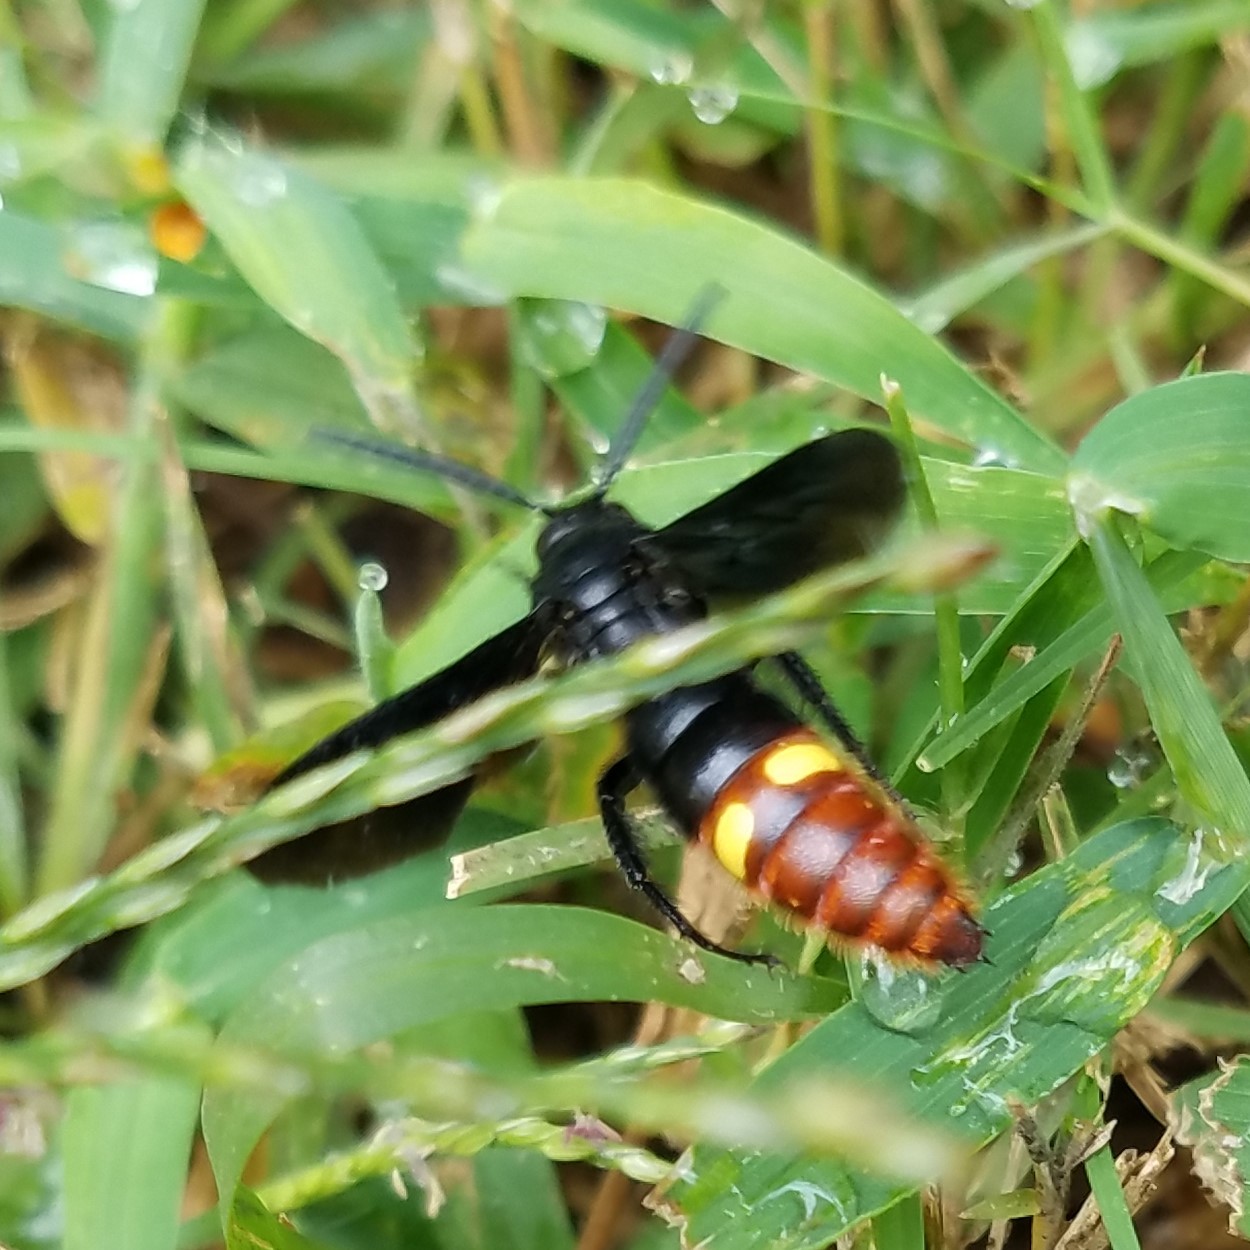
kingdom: Animalia
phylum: Arthropoda
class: Insecta
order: Hymenoptera
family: Scoliidae
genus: Scolia
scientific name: Scolia dubia
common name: Blue-winged scoliid wasp
